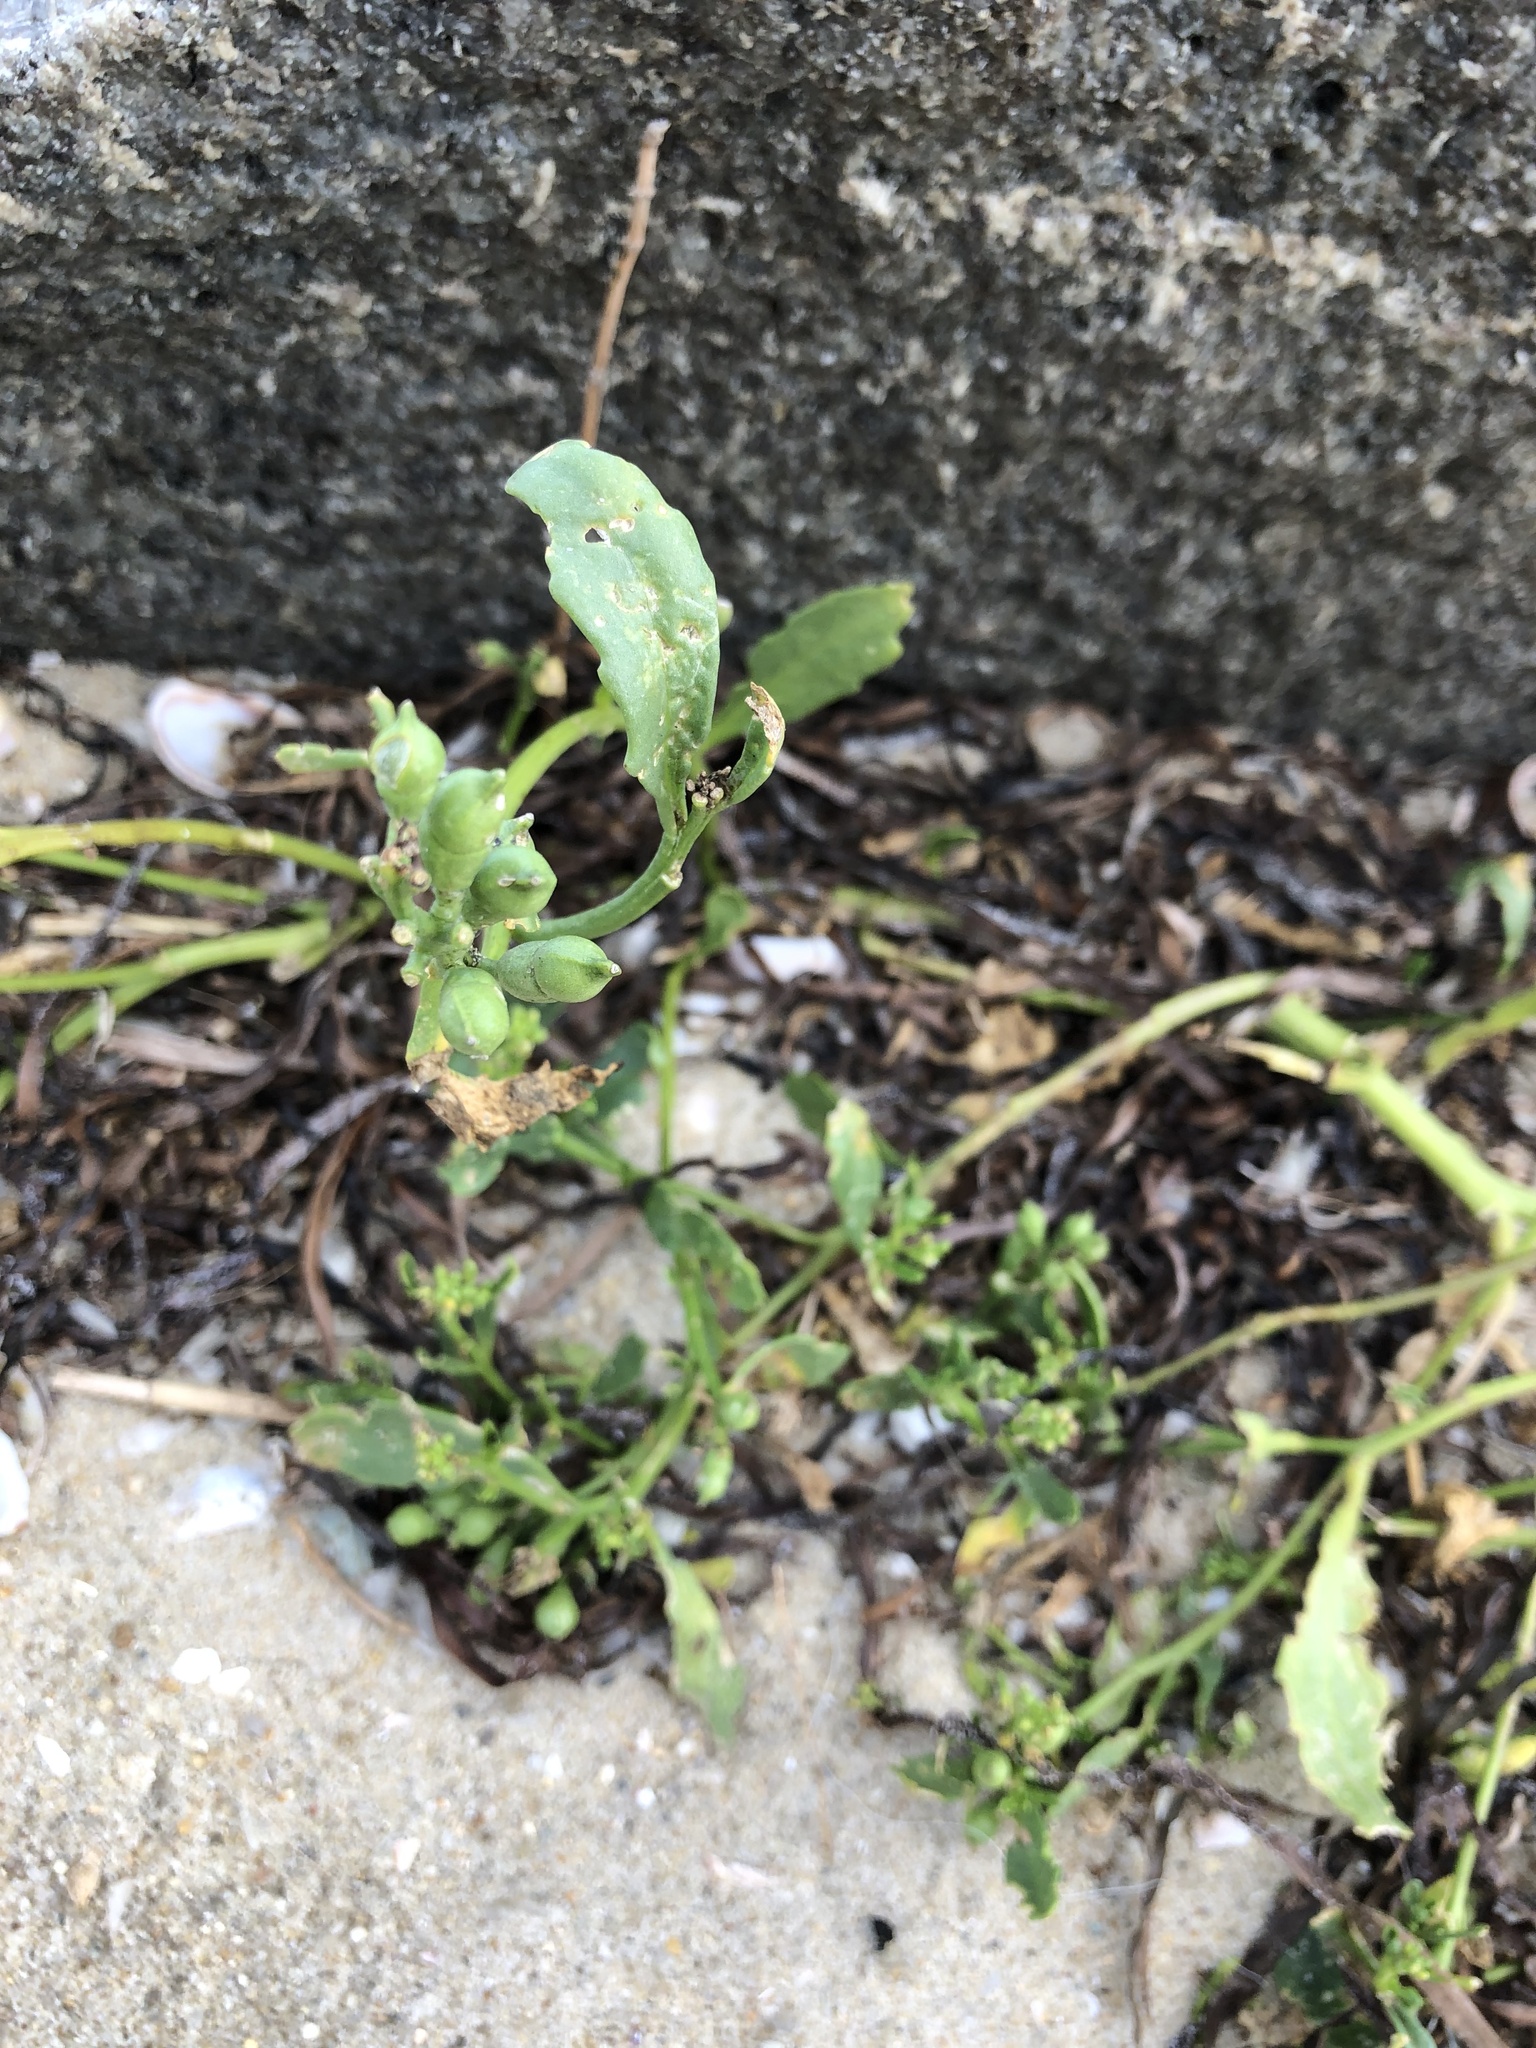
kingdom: Plantae
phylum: Tracheophyta
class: Magnoliopsida
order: Brassicales
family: Brassicaceae
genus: Cakile
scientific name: Cakile edentula
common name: American sea rocket
